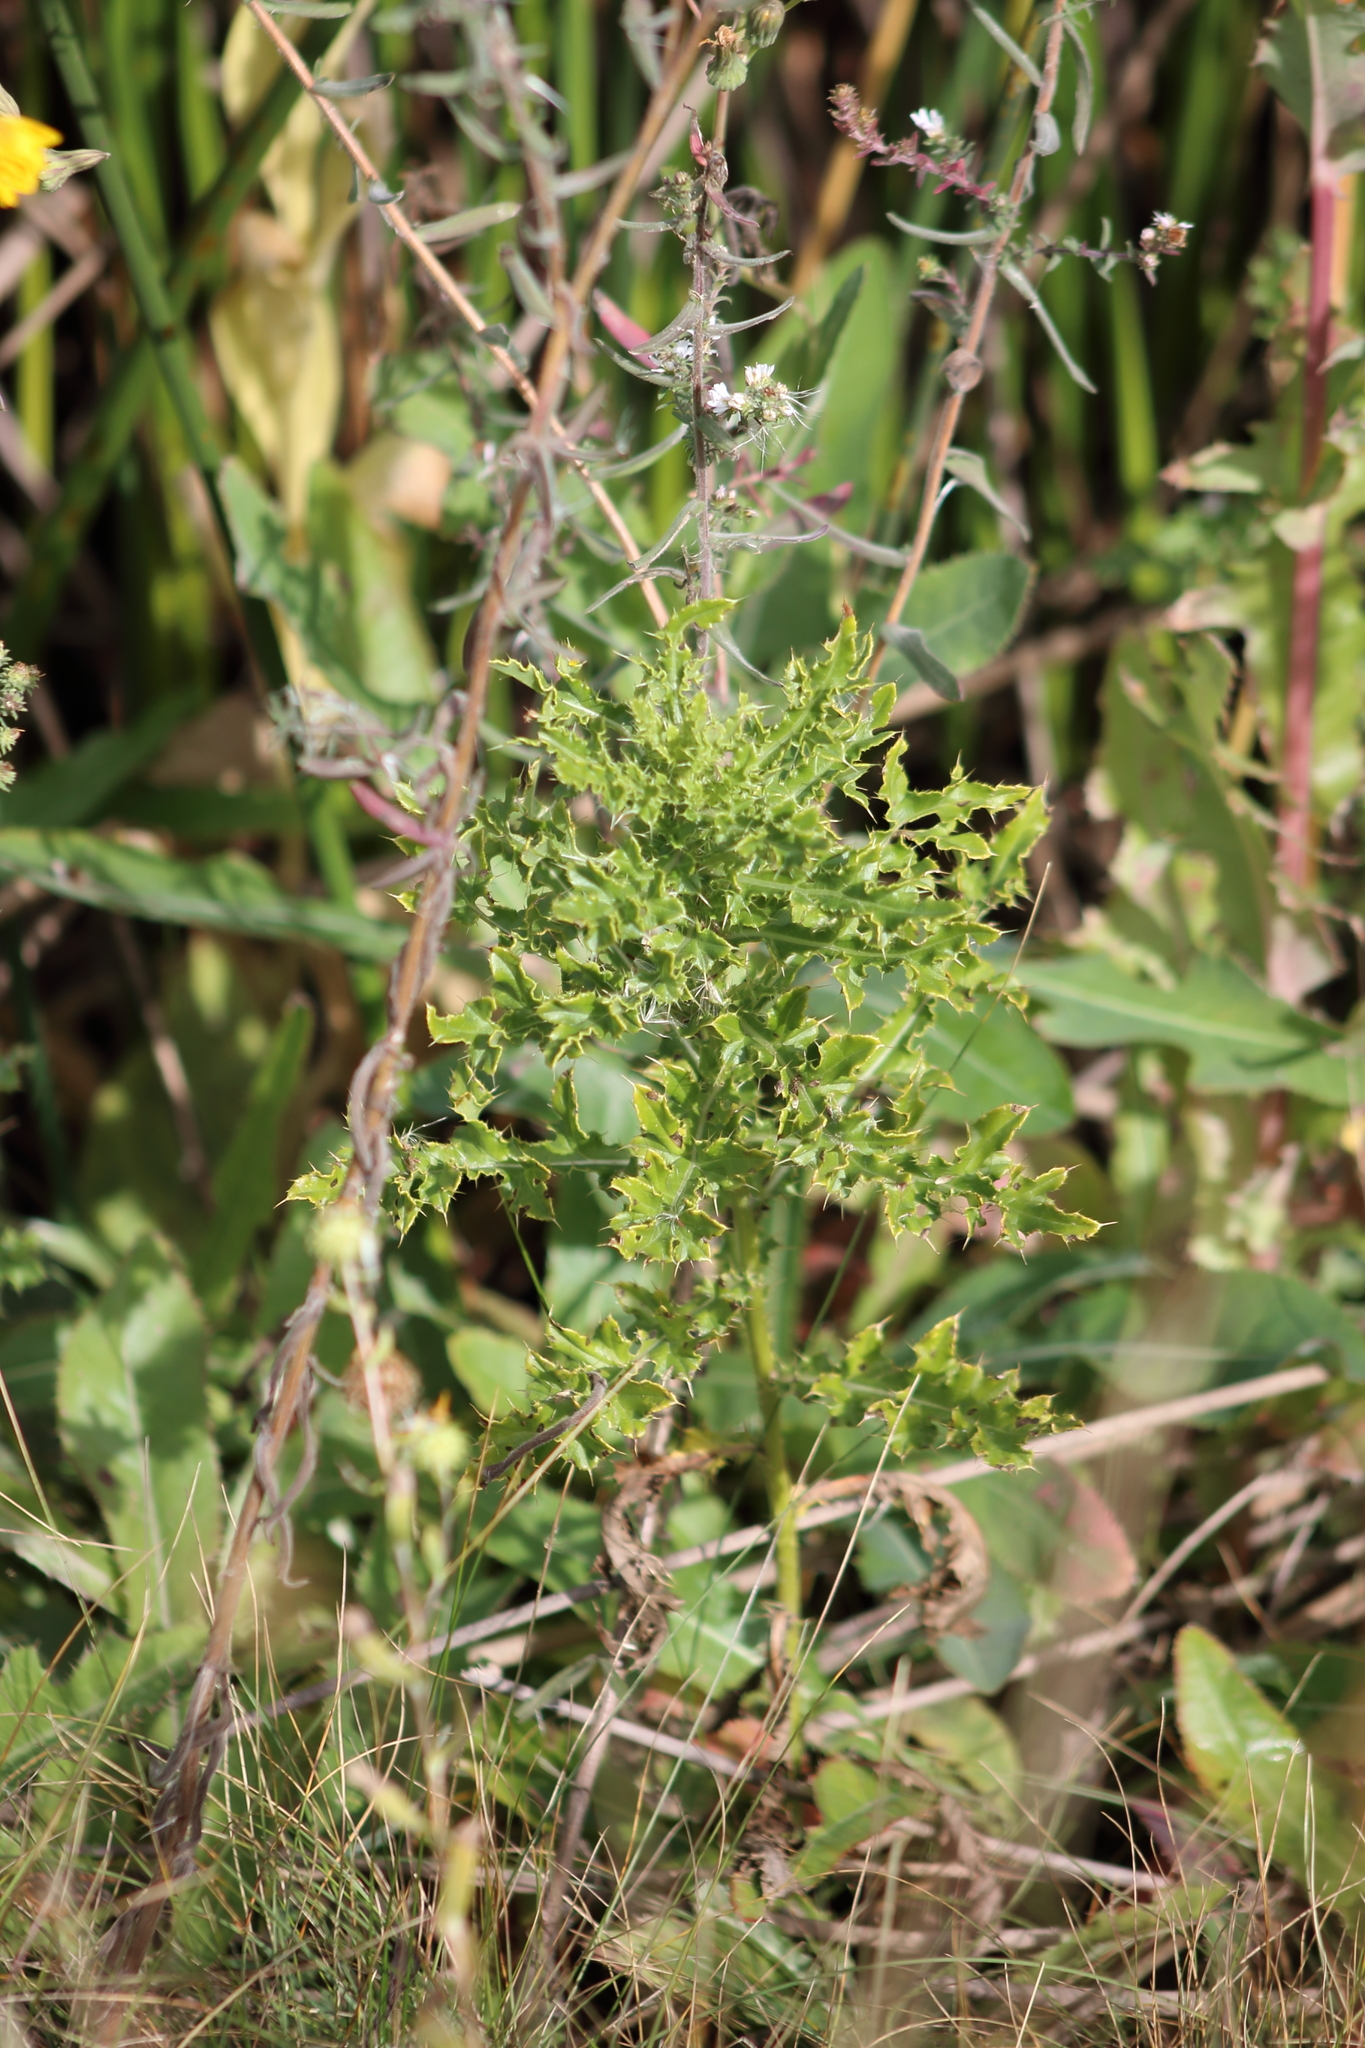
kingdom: Plantae
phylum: Tracheophyta
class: Magnoliopsida
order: Asterales
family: Asteraceae
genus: Cirsium
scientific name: Cirsium arvense
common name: Creeping thistle
